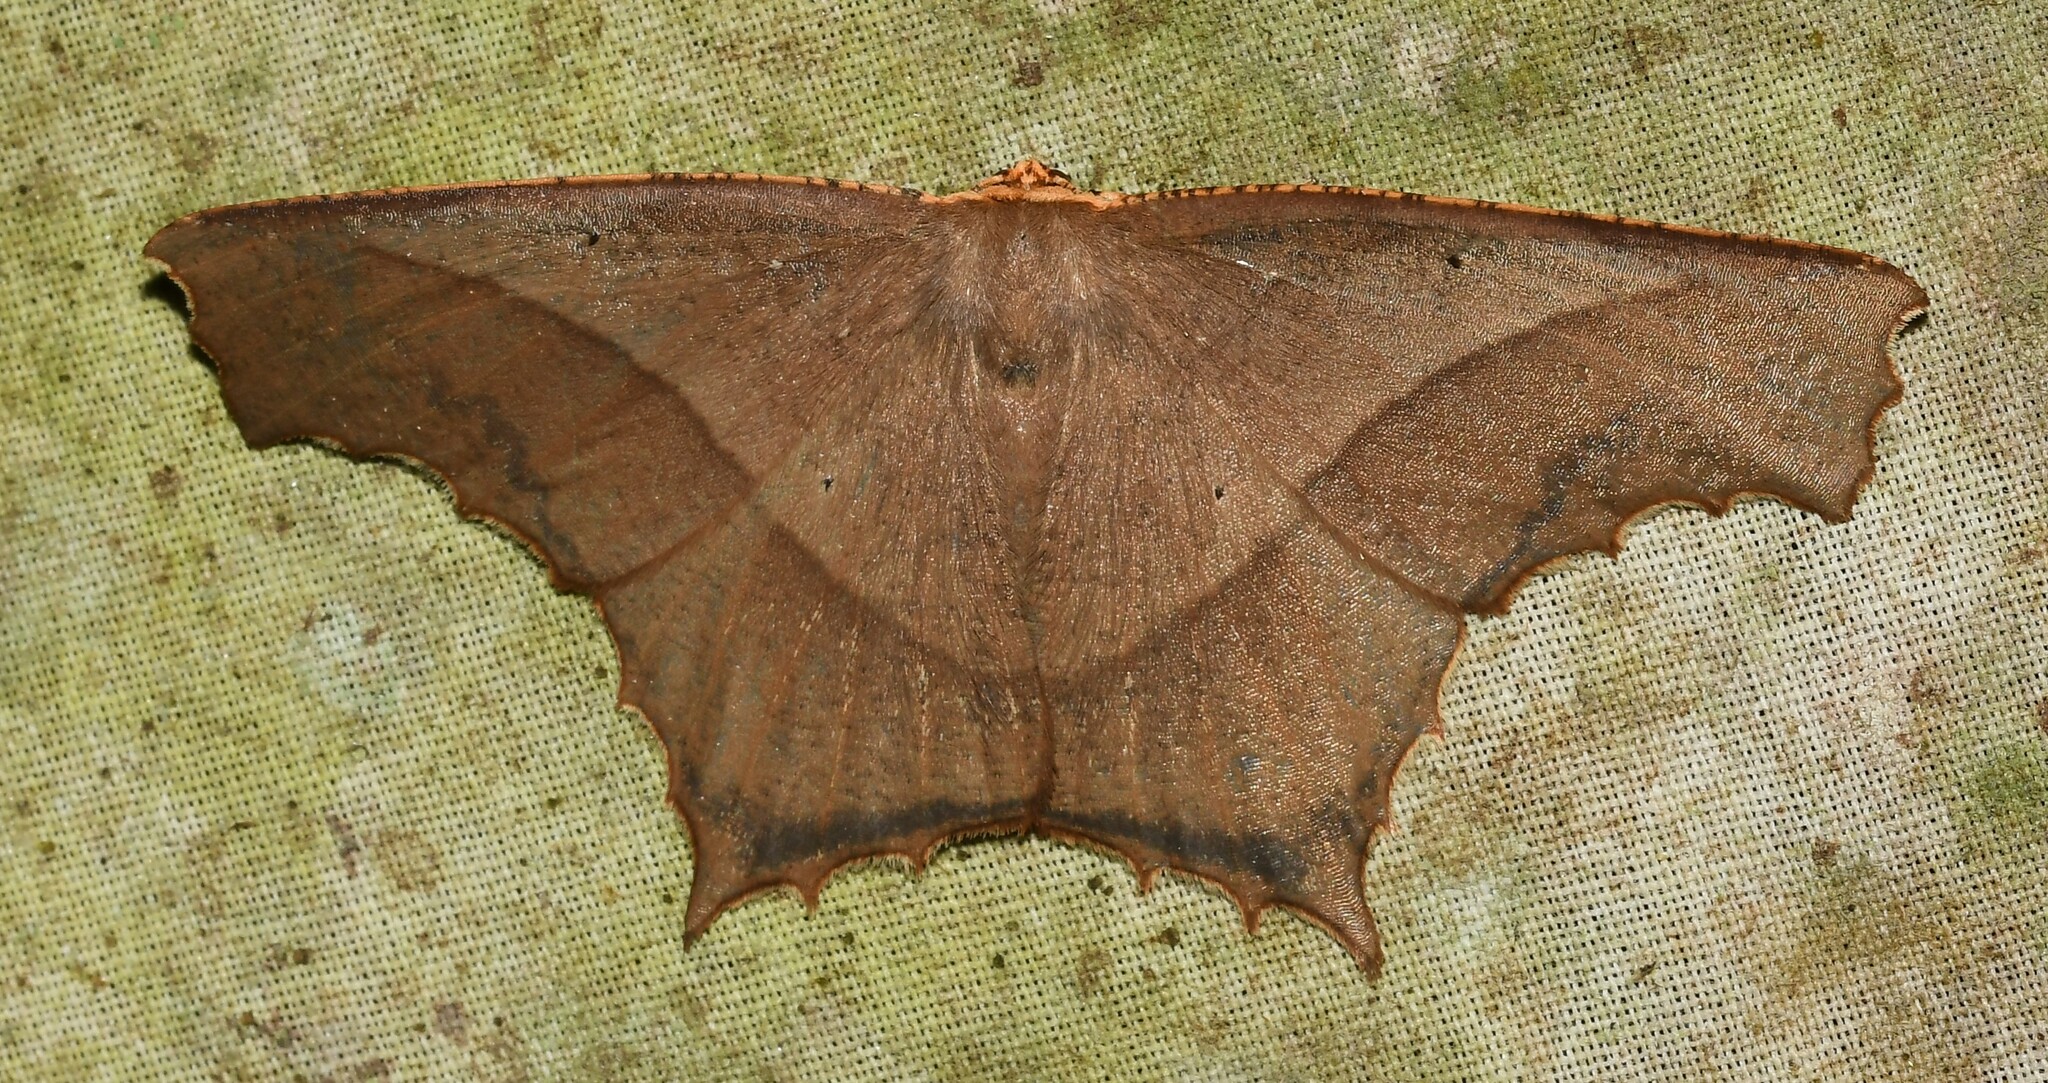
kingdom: Animalia
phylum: Arthropoda
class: Insecta
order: Lepidoptera
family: Geometridae
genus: Eutomopepla
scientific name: Eutomopepla rogenhoferi
